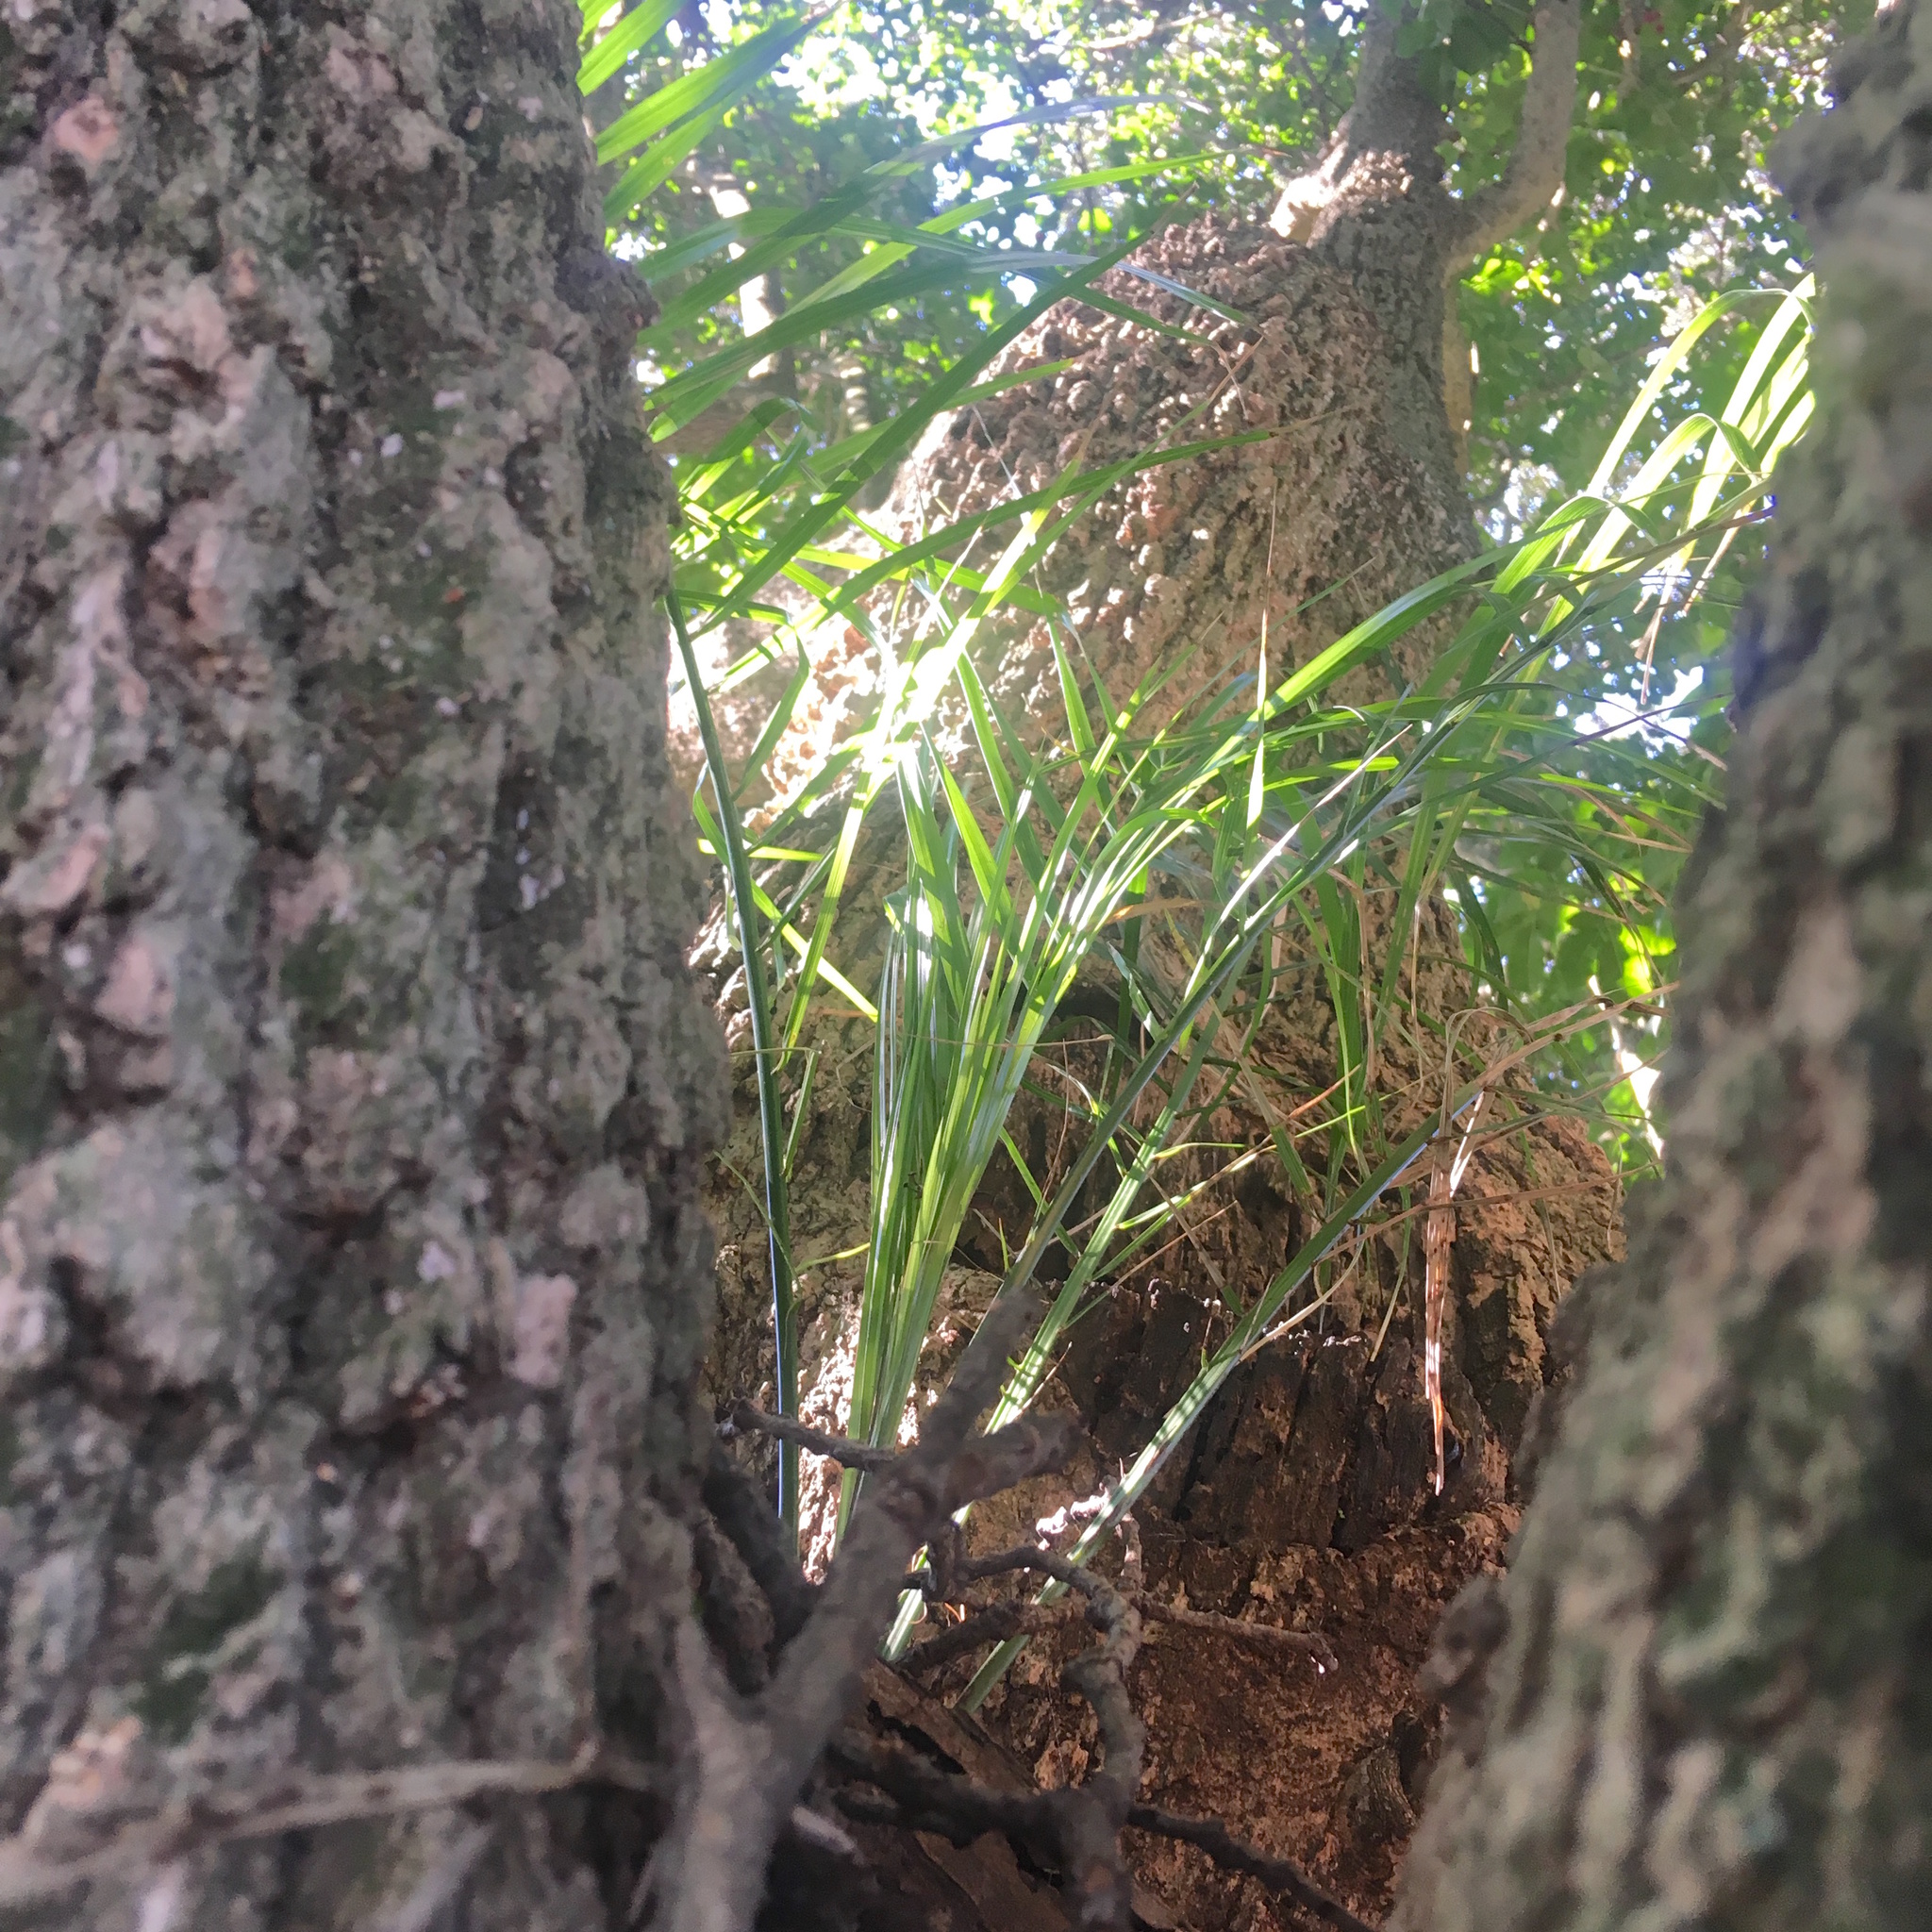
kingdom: Plantae
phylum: Tracheophyta
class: Liliopsida
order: Arecales
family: Arecaceae
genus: Phoenix
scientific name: Phoenix canariensis
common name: Canary island date palm
